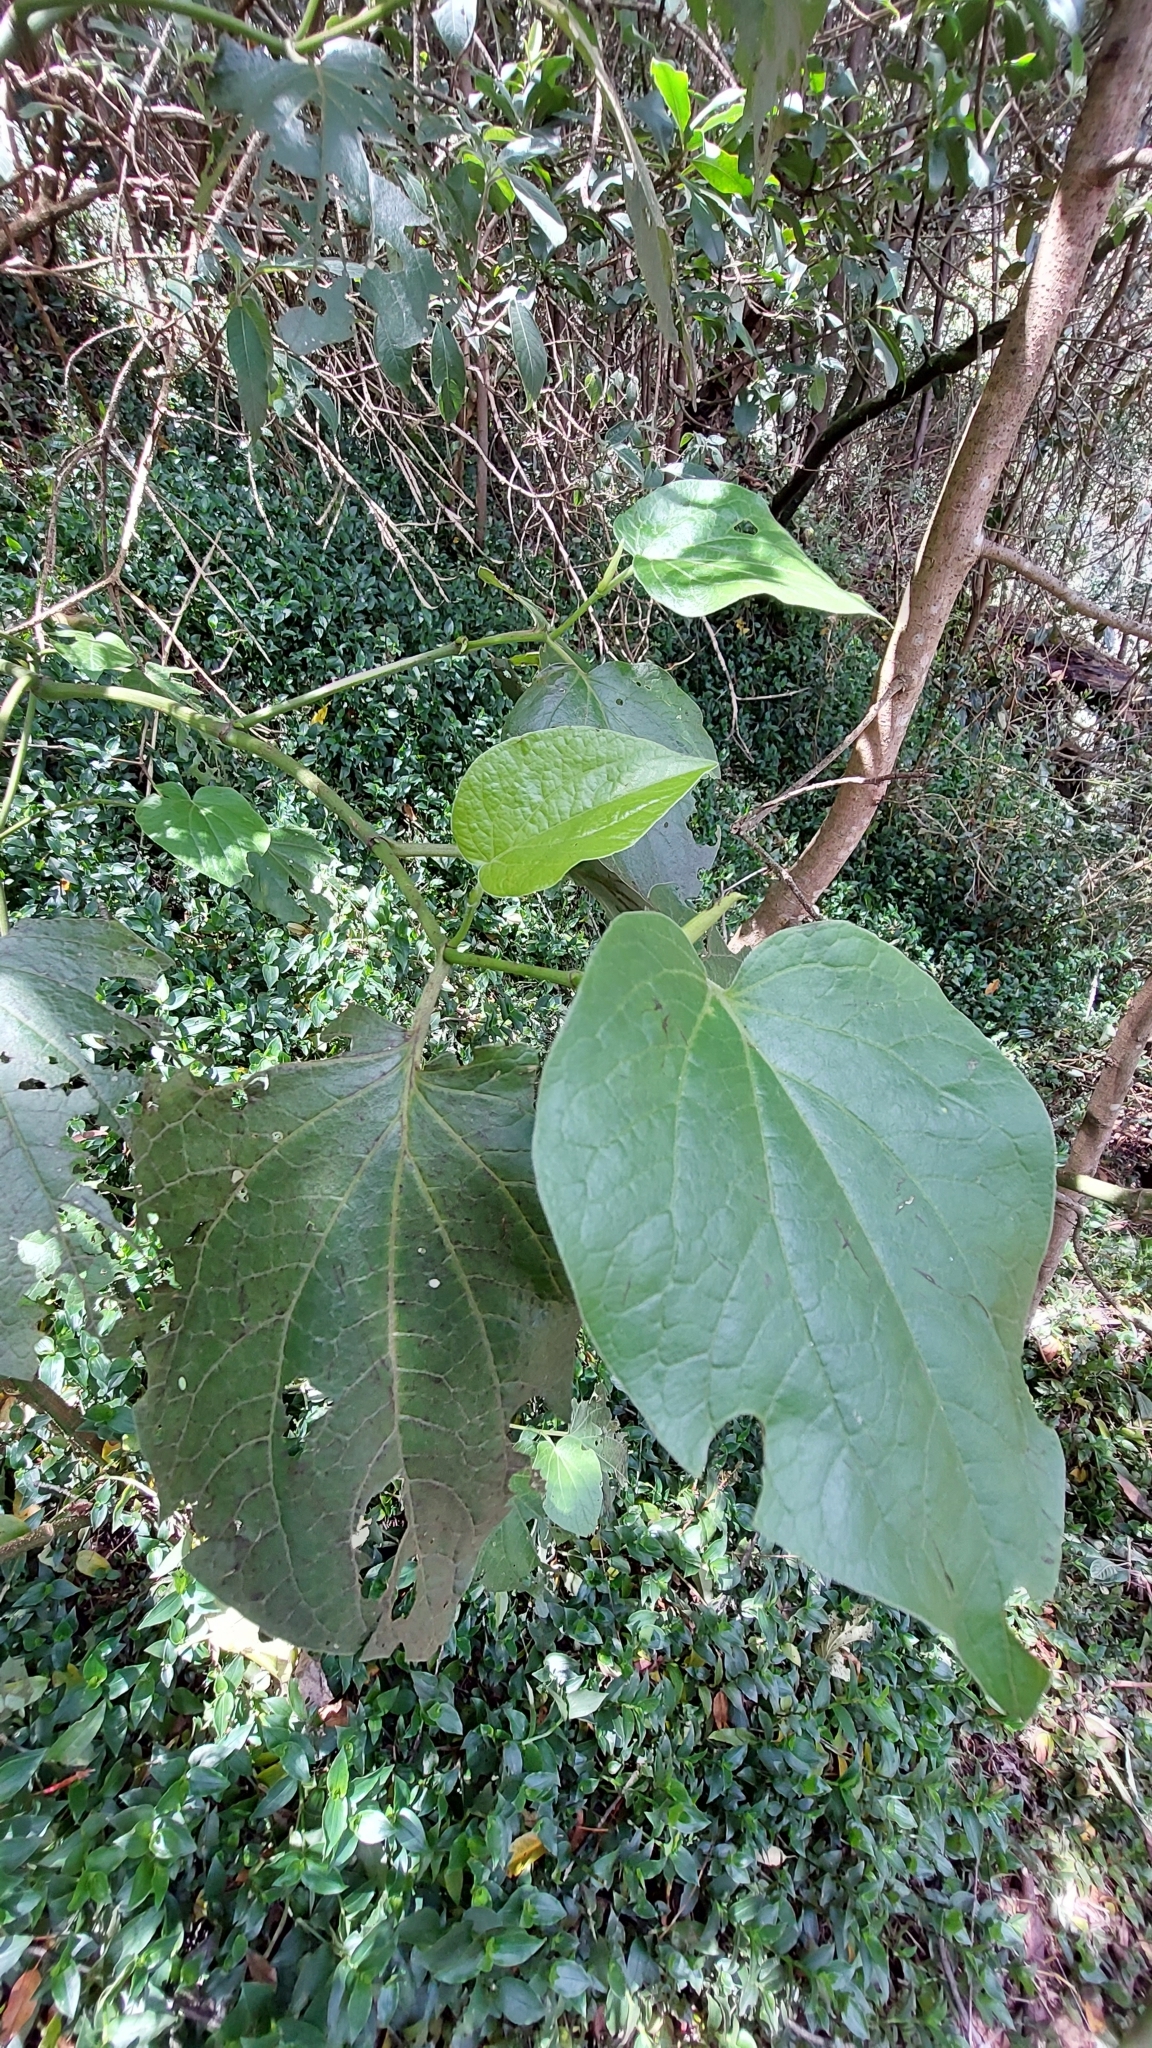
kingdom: Plantae
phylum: Tracheophyta
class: Magnoliopsida
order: Piperales
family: Piperaceae
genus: Piper
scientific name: Piper barbatum
